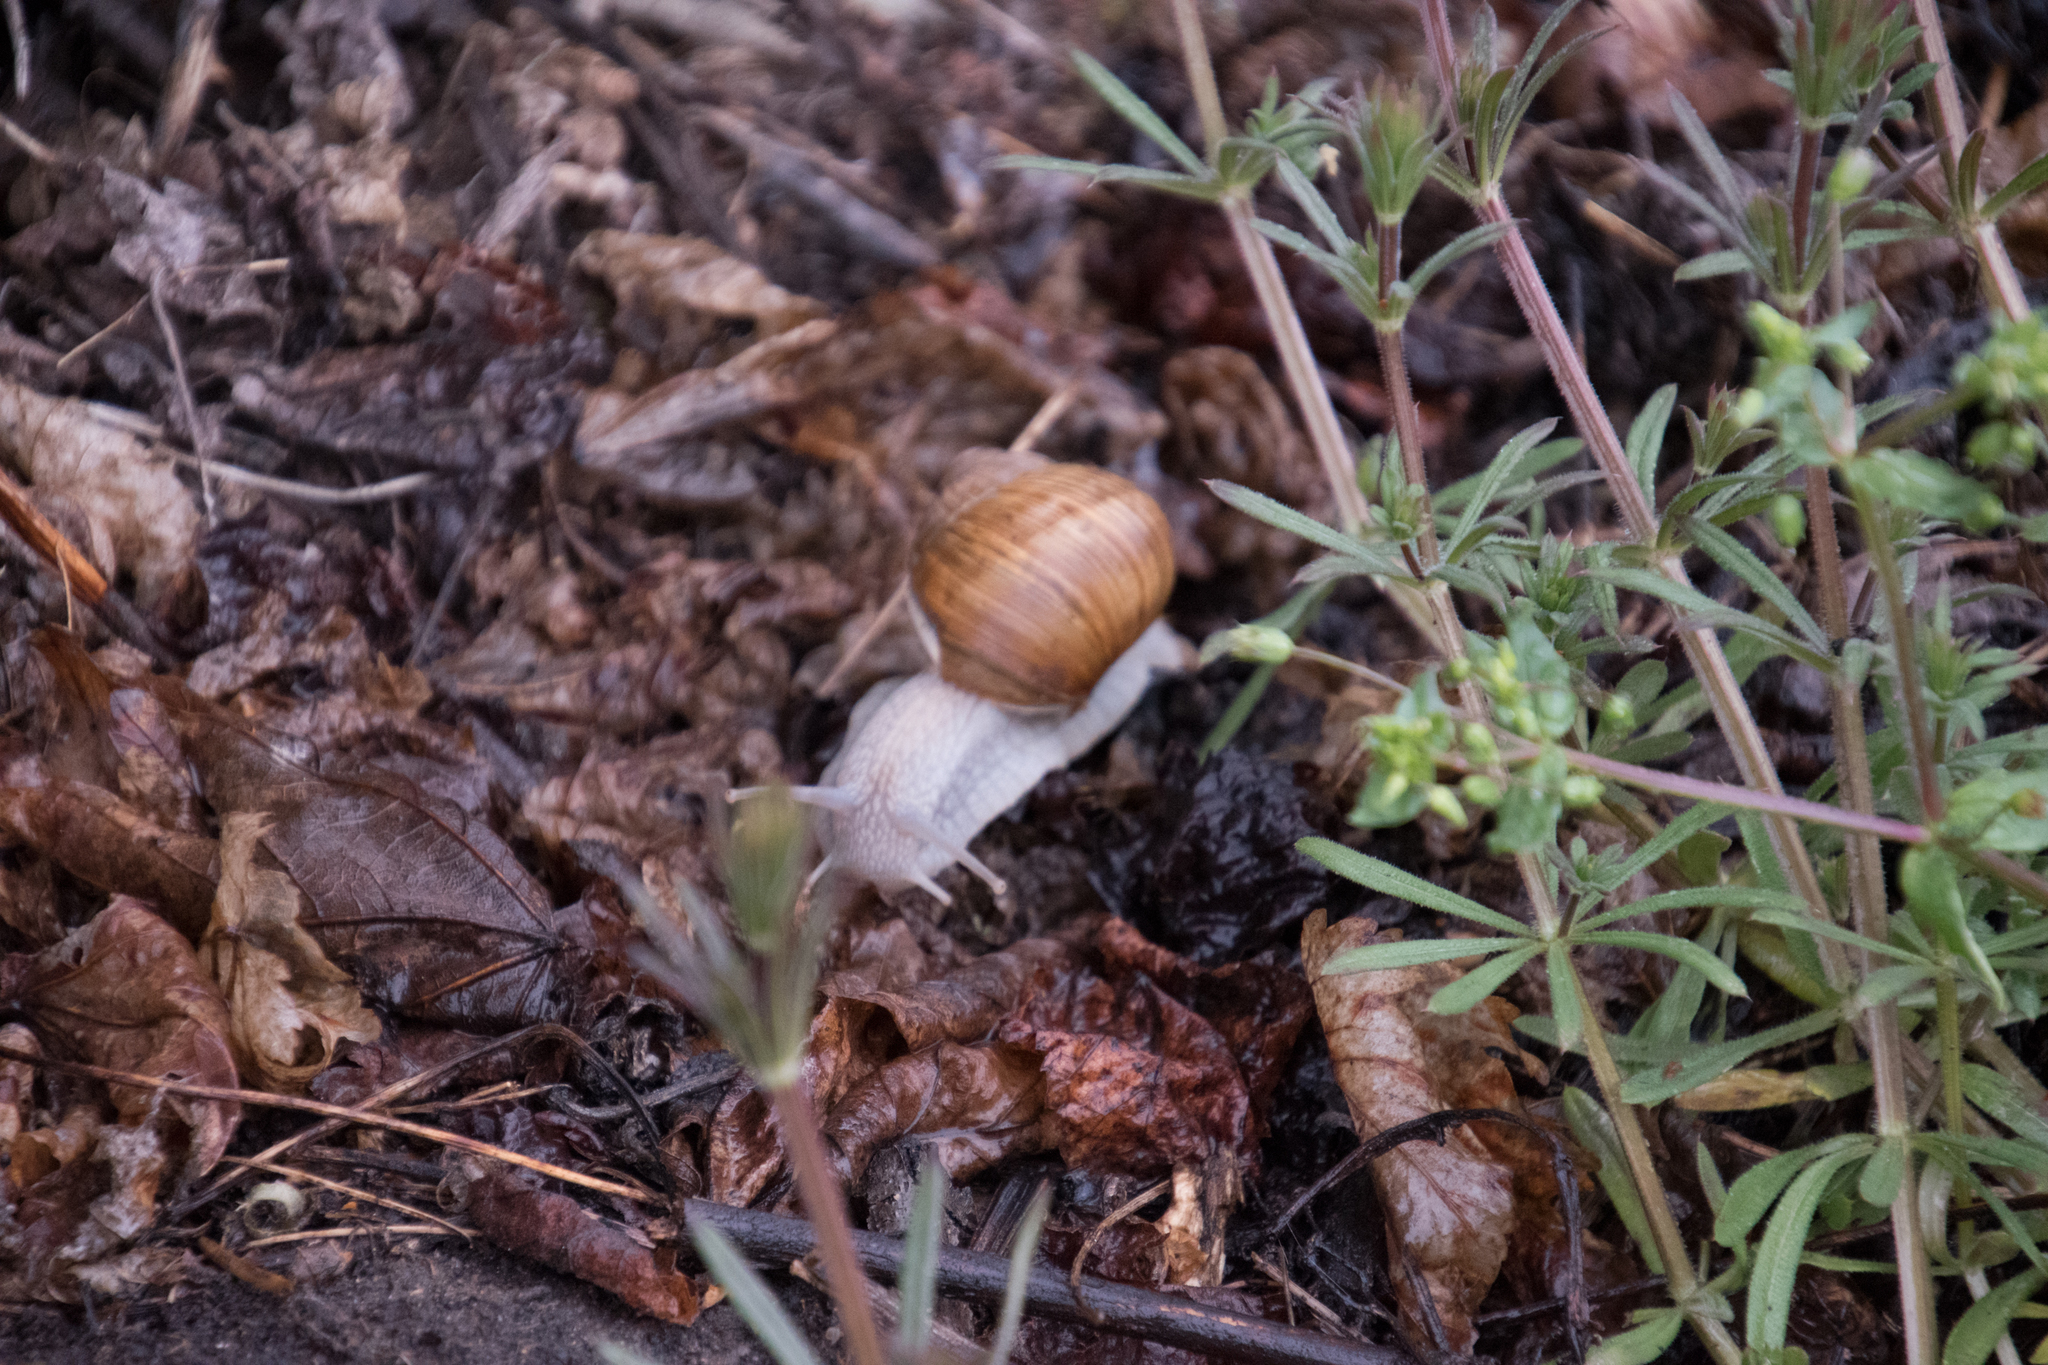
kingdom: Animalia
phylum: Mollusca
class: Gastropoda
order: Stylommatophora
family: Helicidae
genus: Helix
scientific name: Helix pomatia
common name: Roman snail
